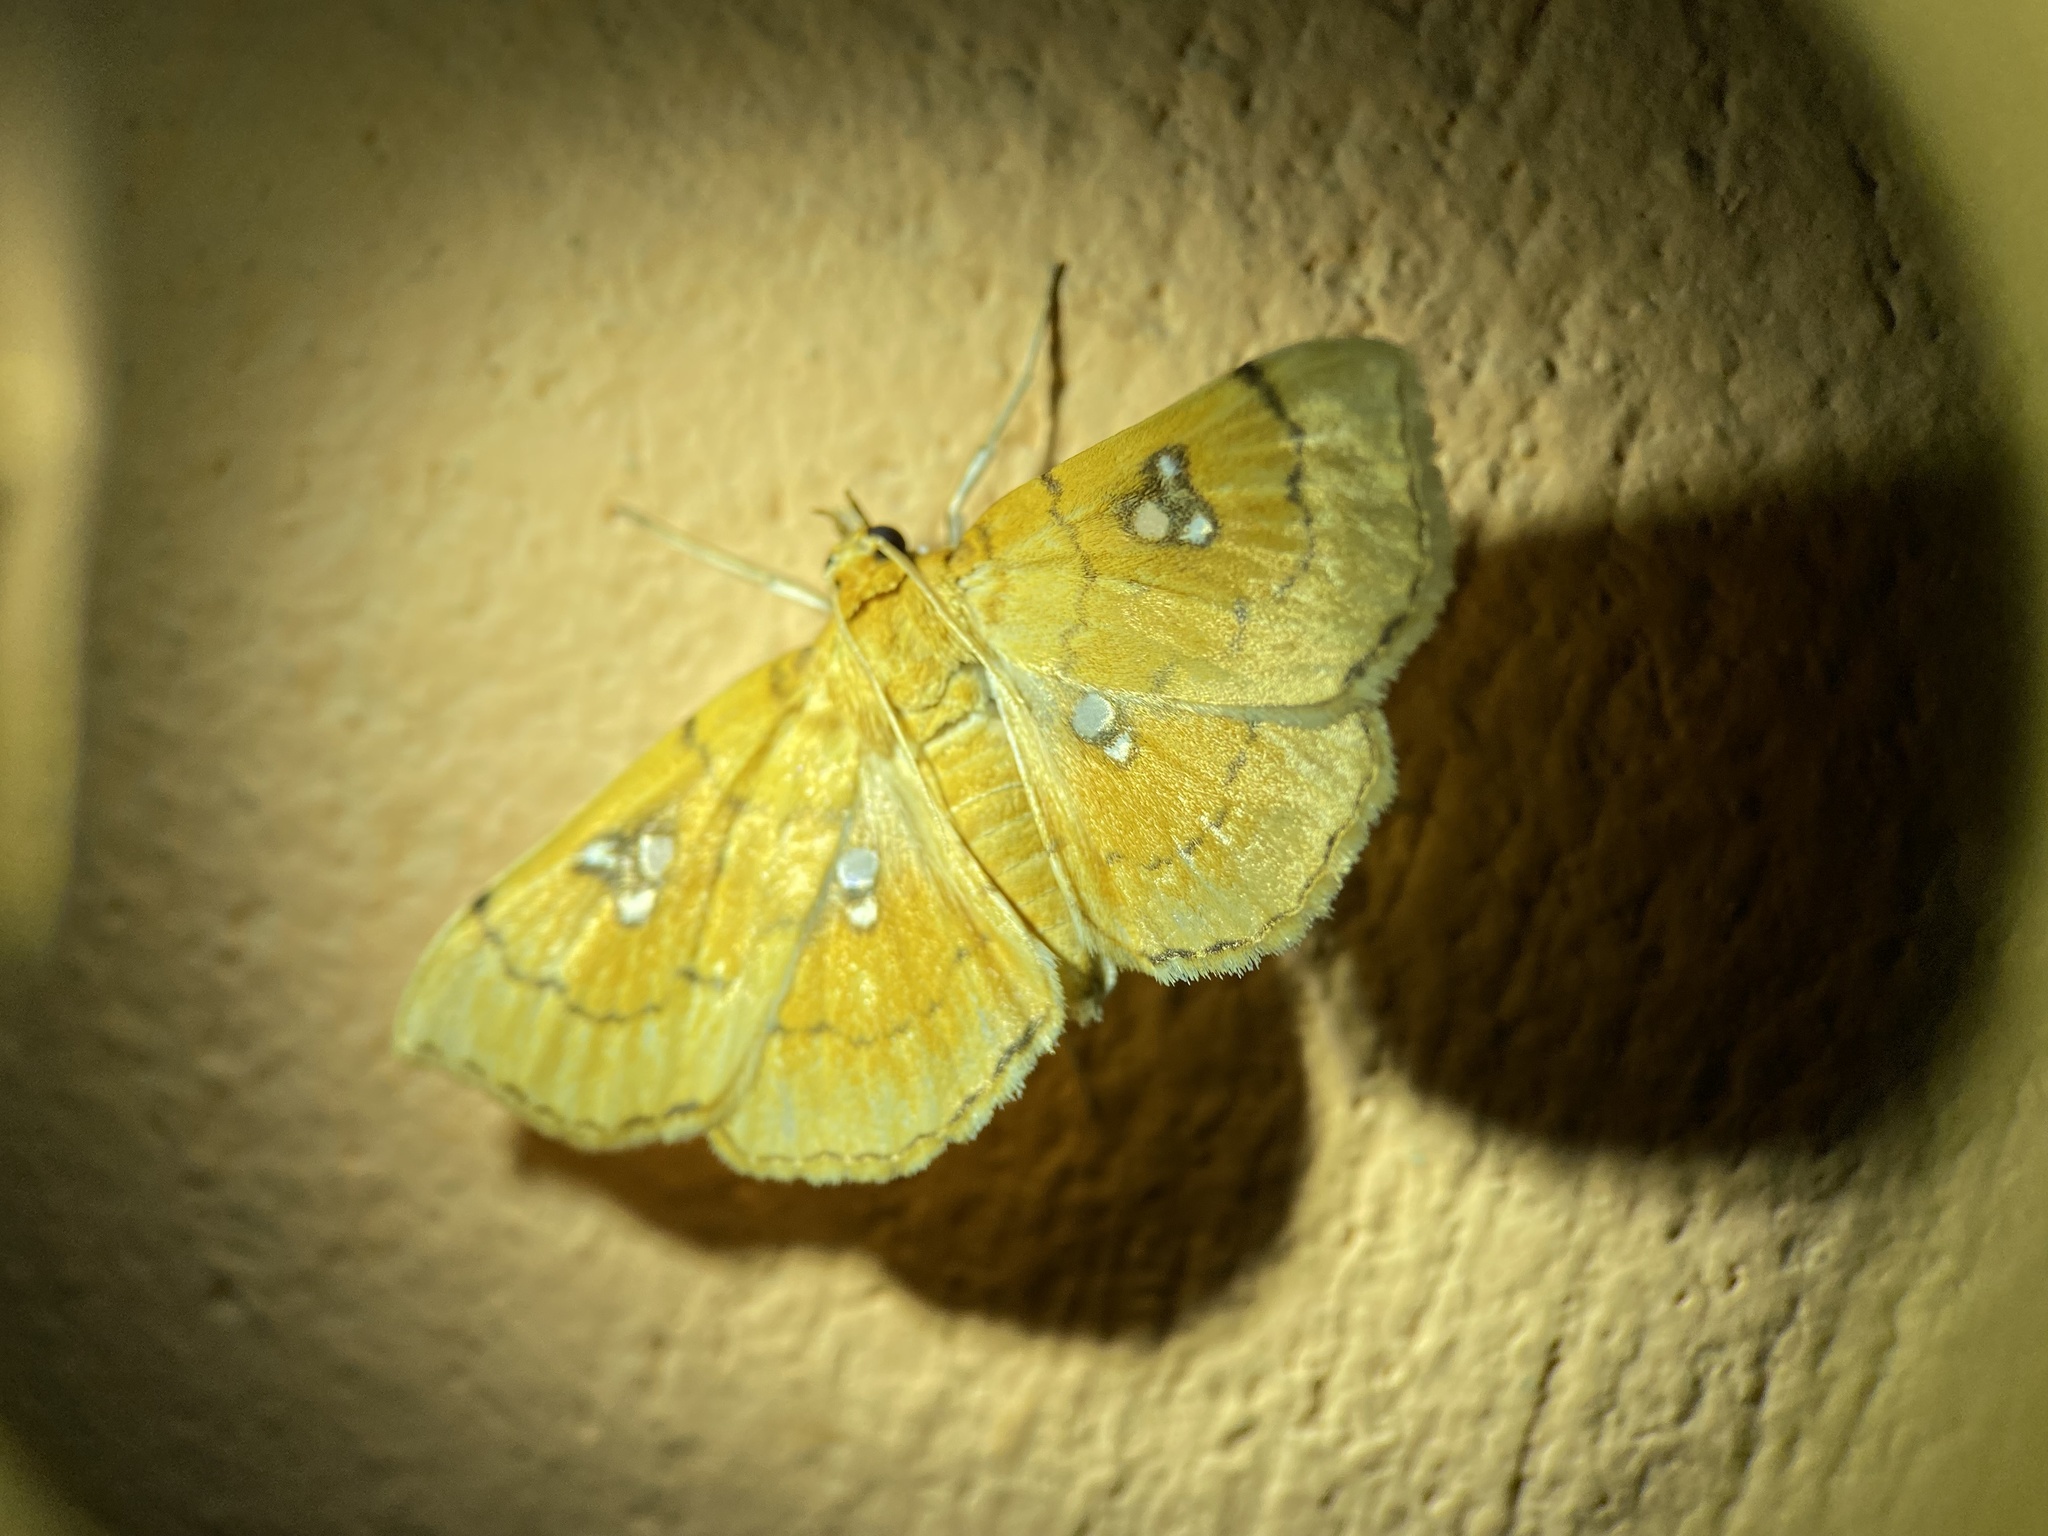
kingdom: Animalia
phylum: Arthropoda
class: Insecta
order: Lepidoptera
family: Crambidae
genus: Cacographis
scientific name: Cacographis osteolalis
